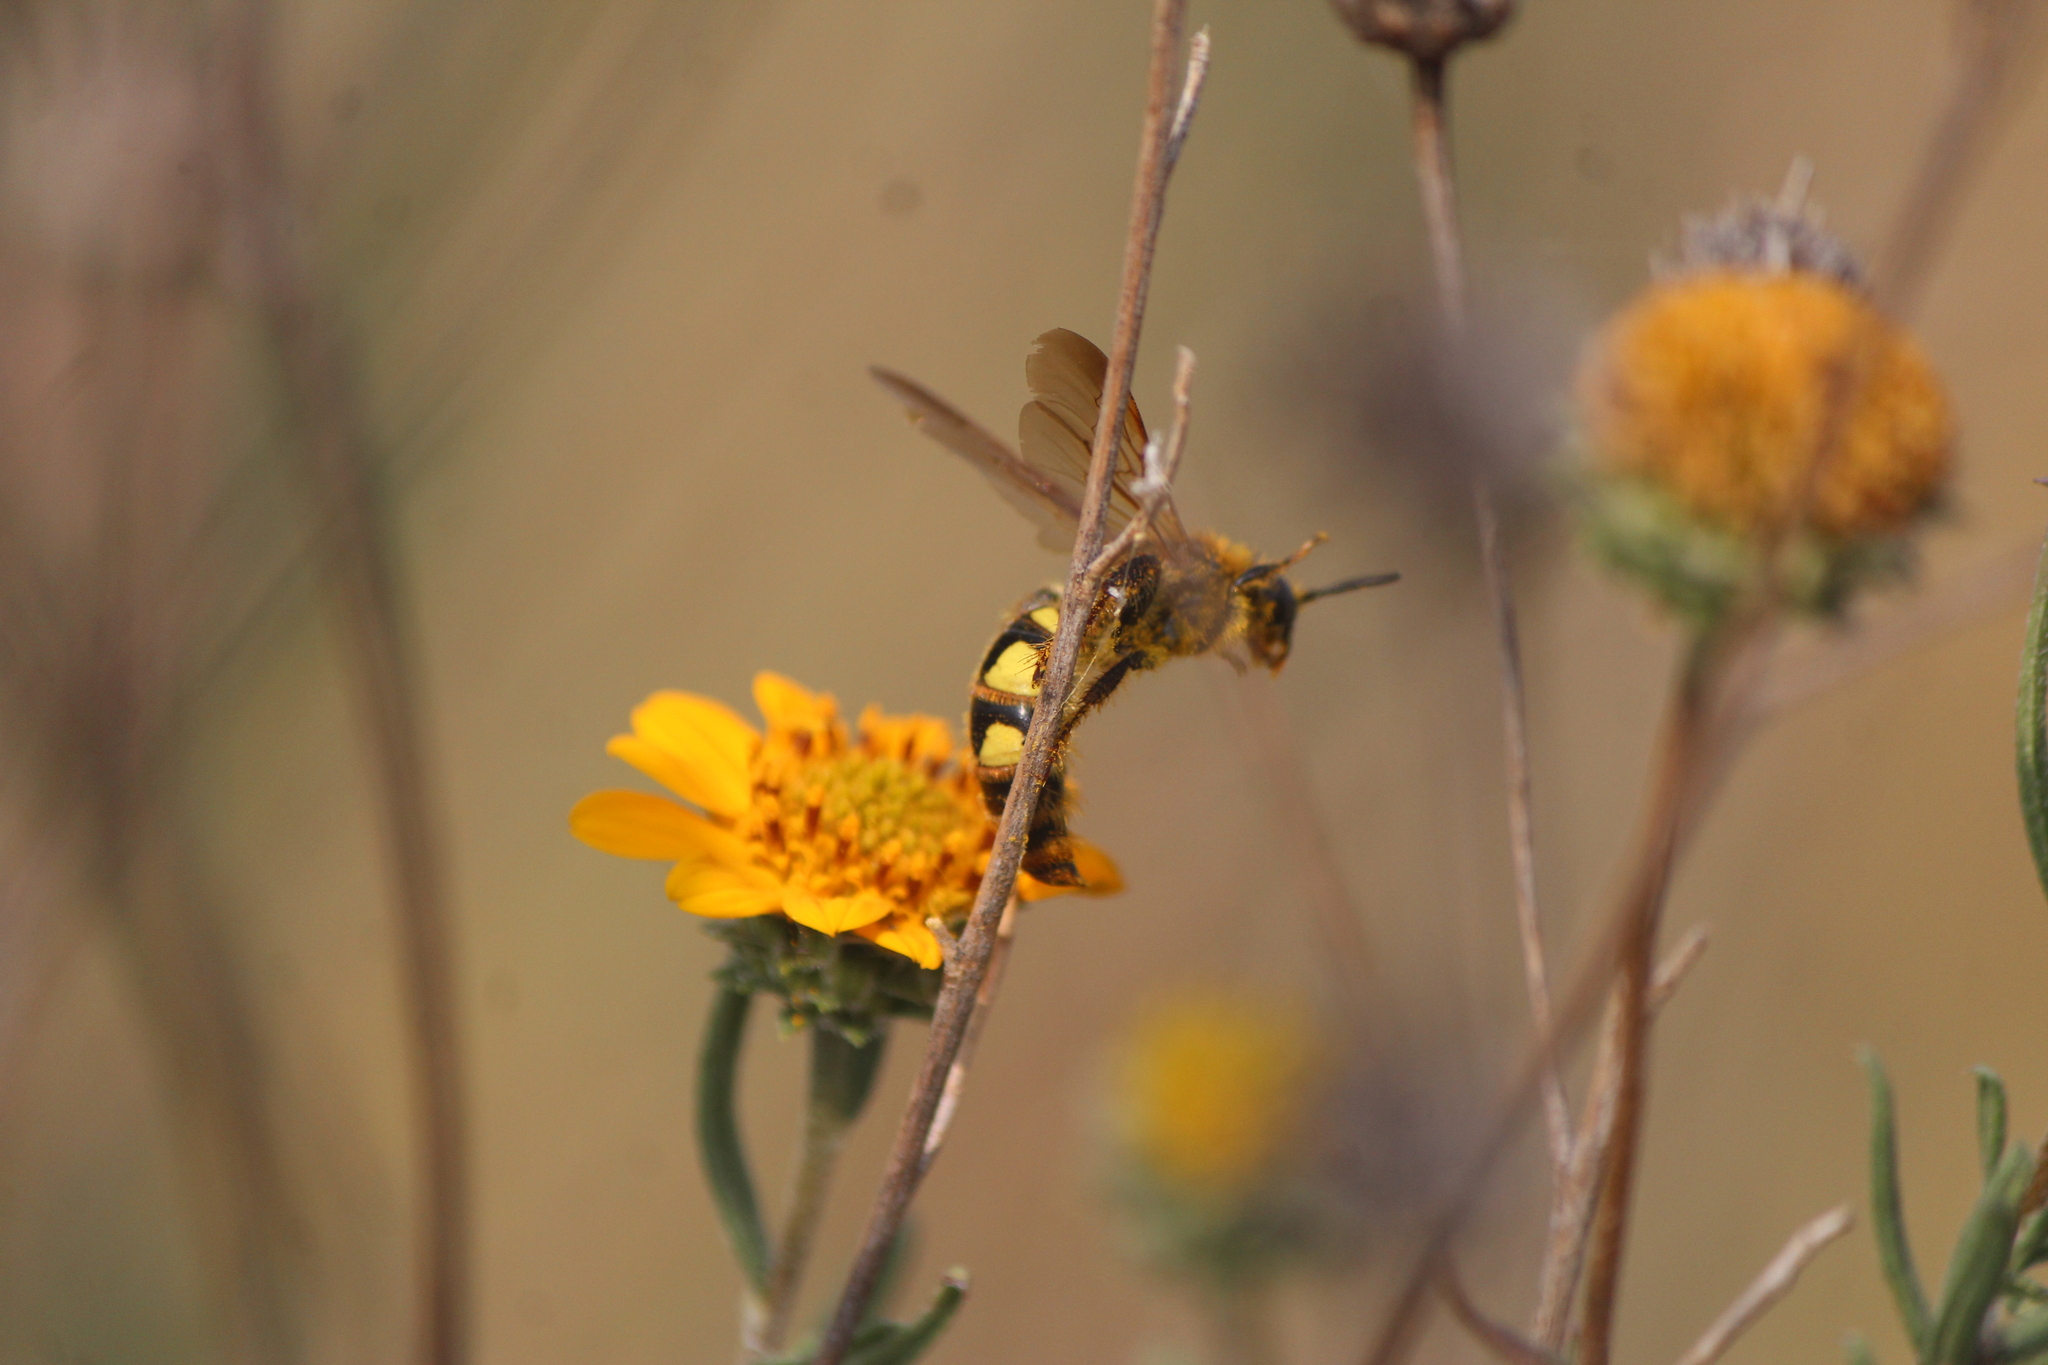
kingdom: Animalia
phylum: Arthropoda
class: Insecta
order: Hymenoptera
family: Scoliidae
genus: Xantocampsomeris
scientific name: Xantocampsomeris limosa
